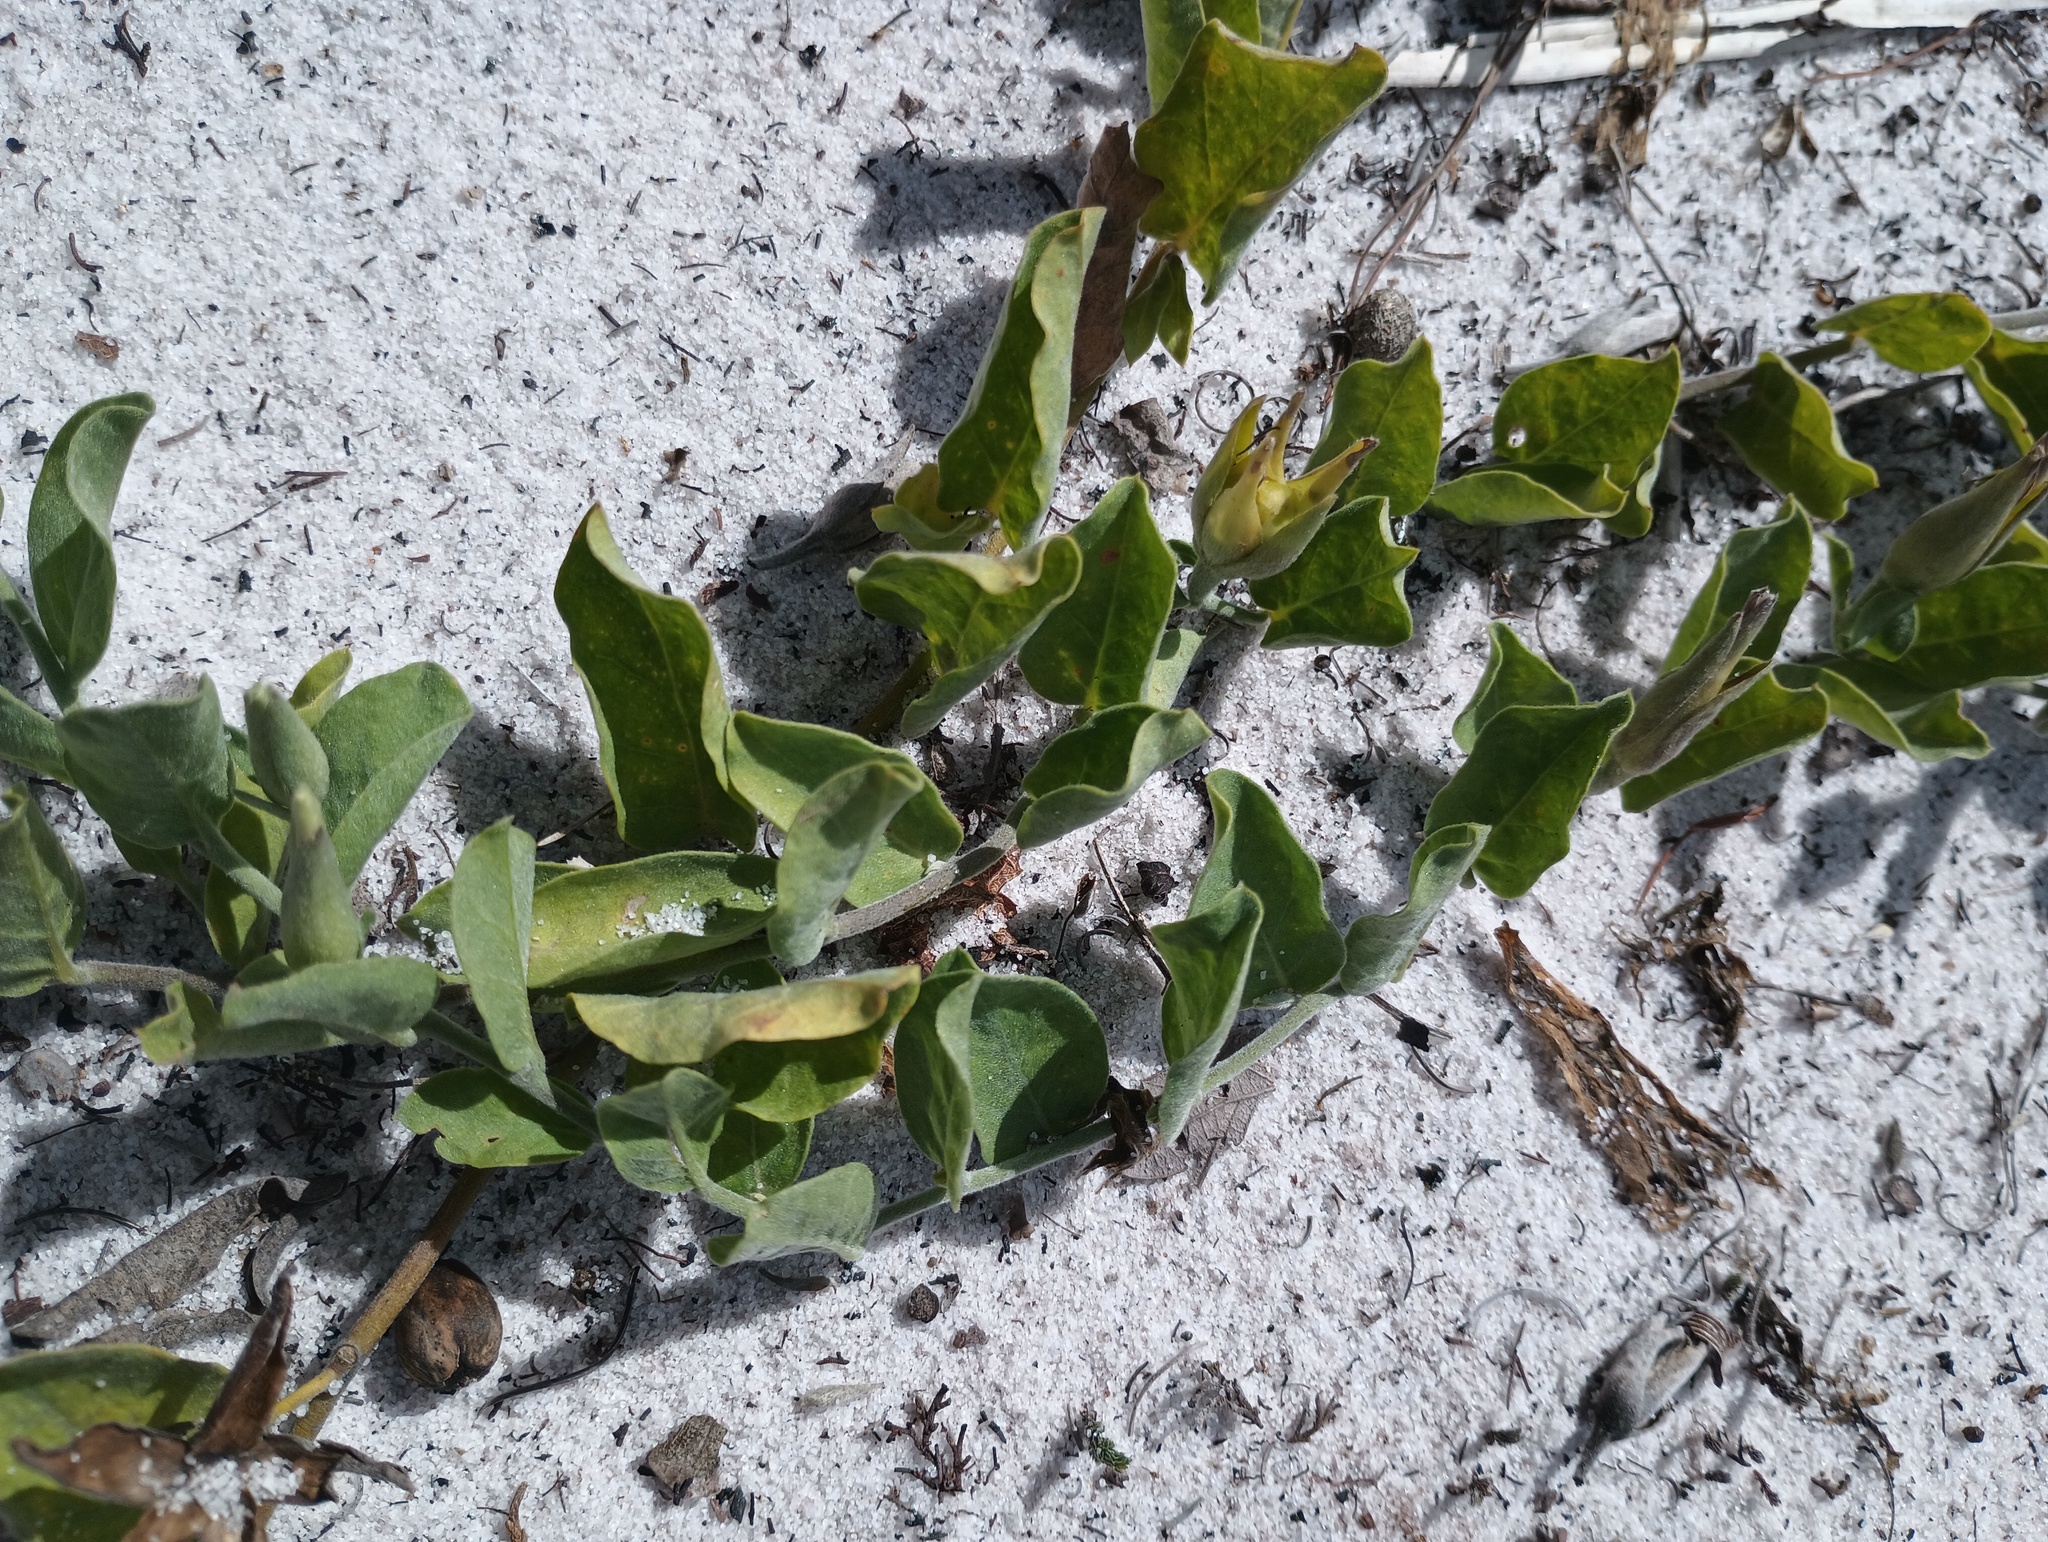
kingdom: Plantae
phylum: Tracheophyta
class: Magnoliopsida
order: Solanales
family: Convolvulaceae
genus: Bonamia
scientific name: Bonamia grandiflora
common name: Florida bonamia
